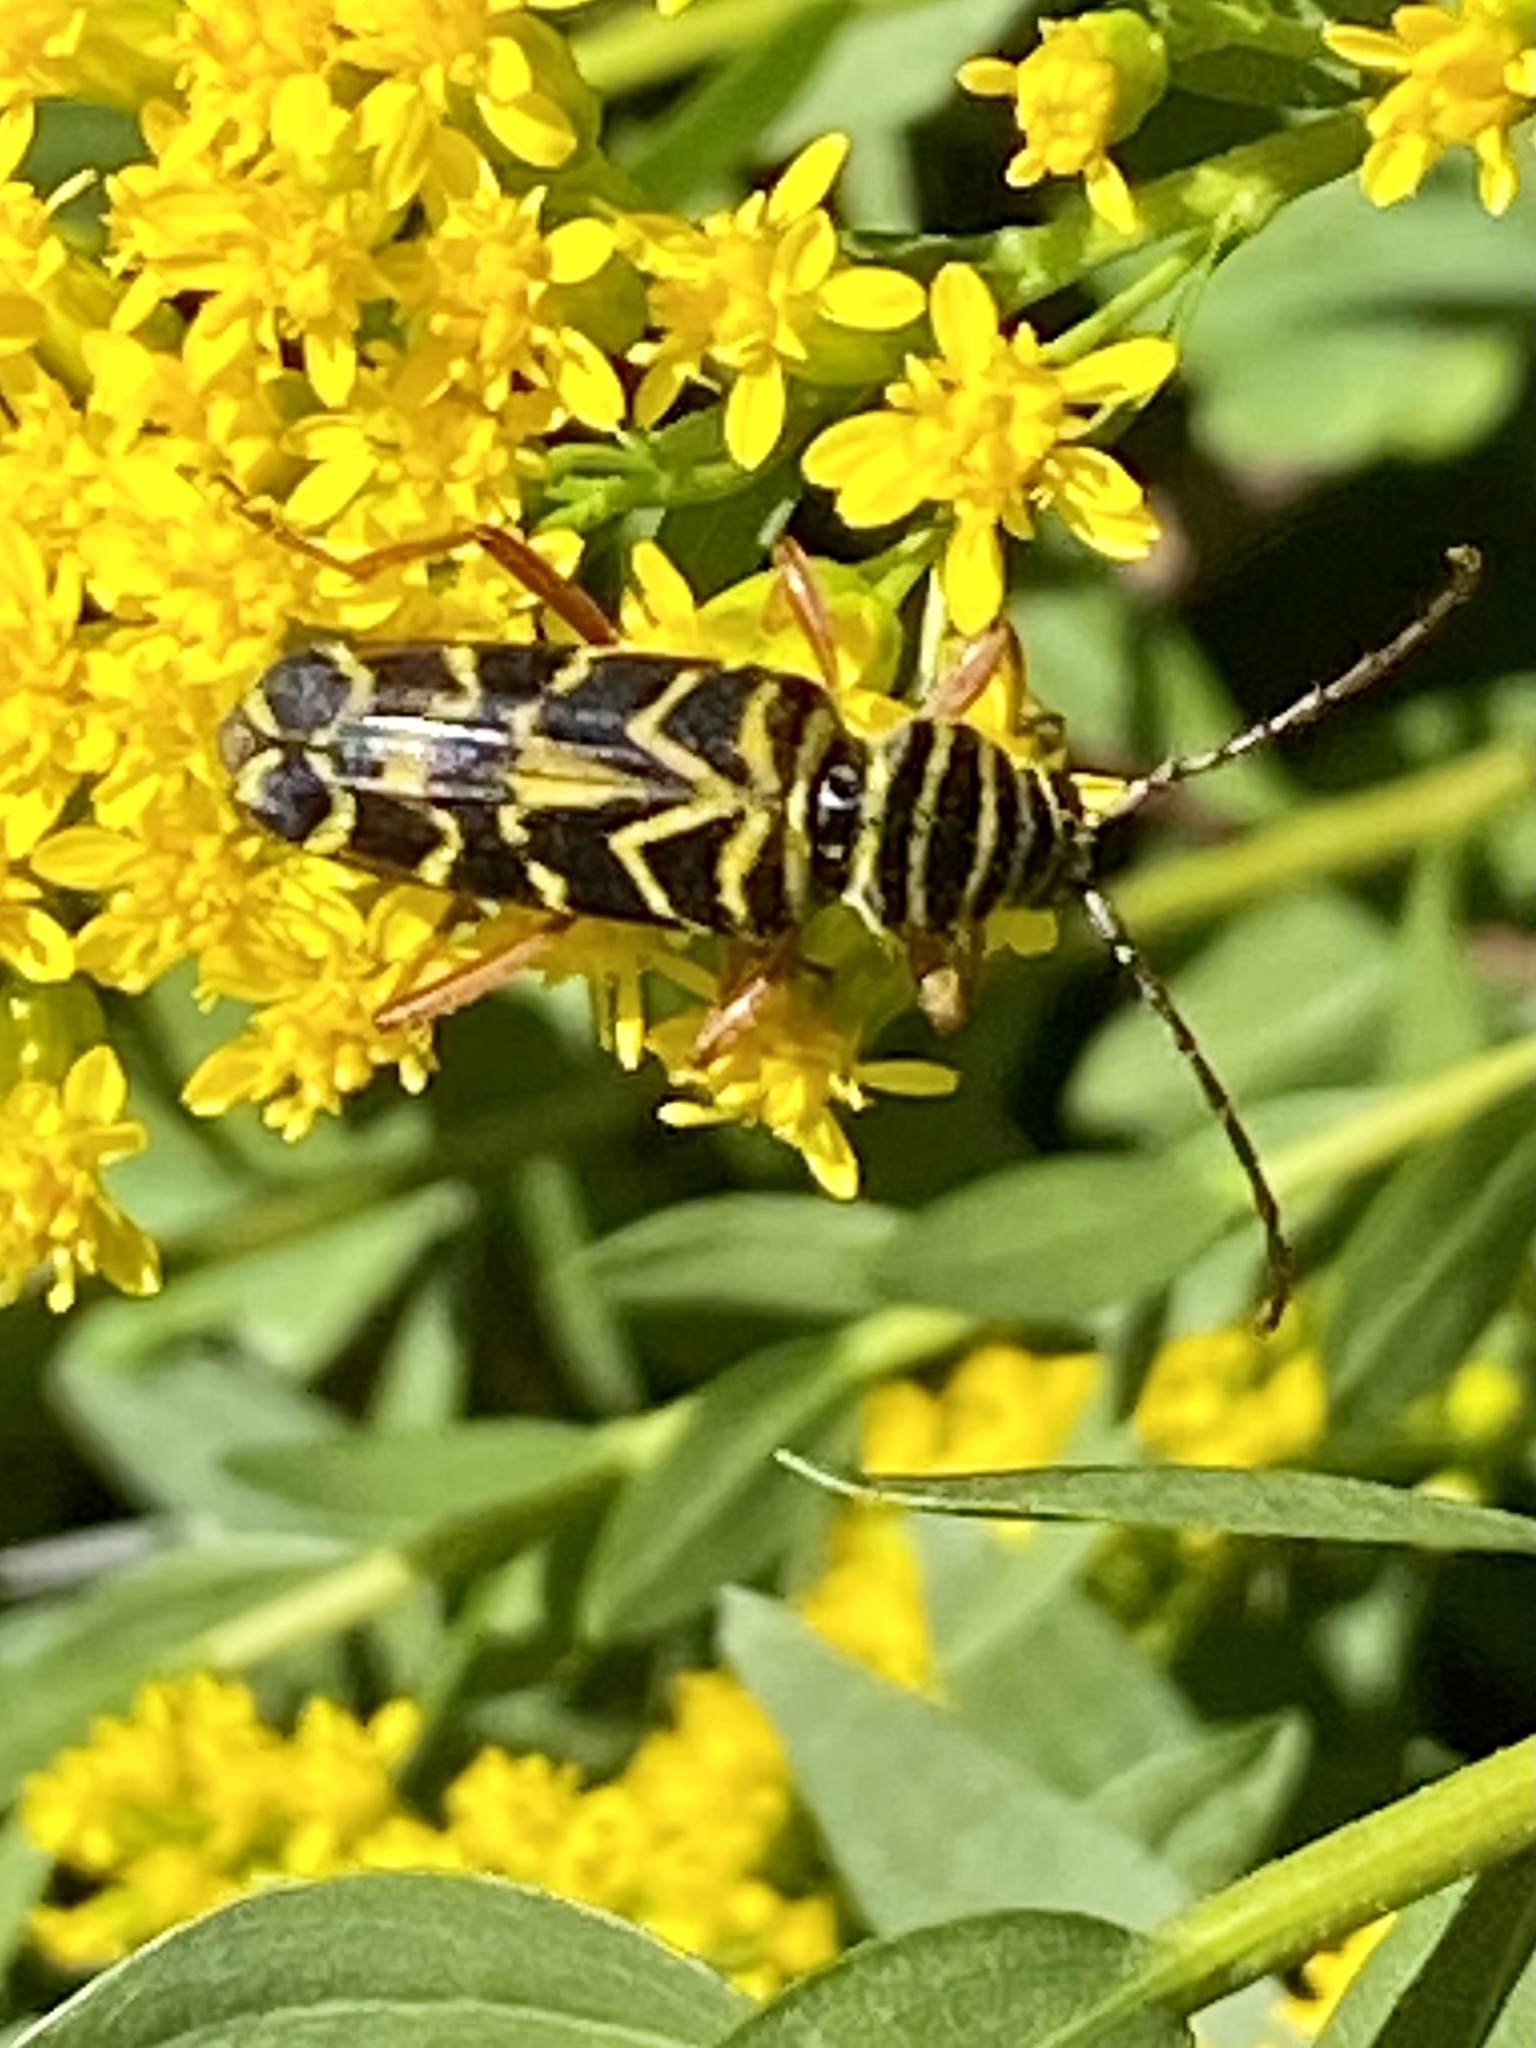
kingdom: Animalia
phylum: Arthropoda
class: Insecta
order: Coleoptera
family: Cerambycidae
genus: Megacyllene
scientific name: Megacyllene robiniae
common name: Locust borer
